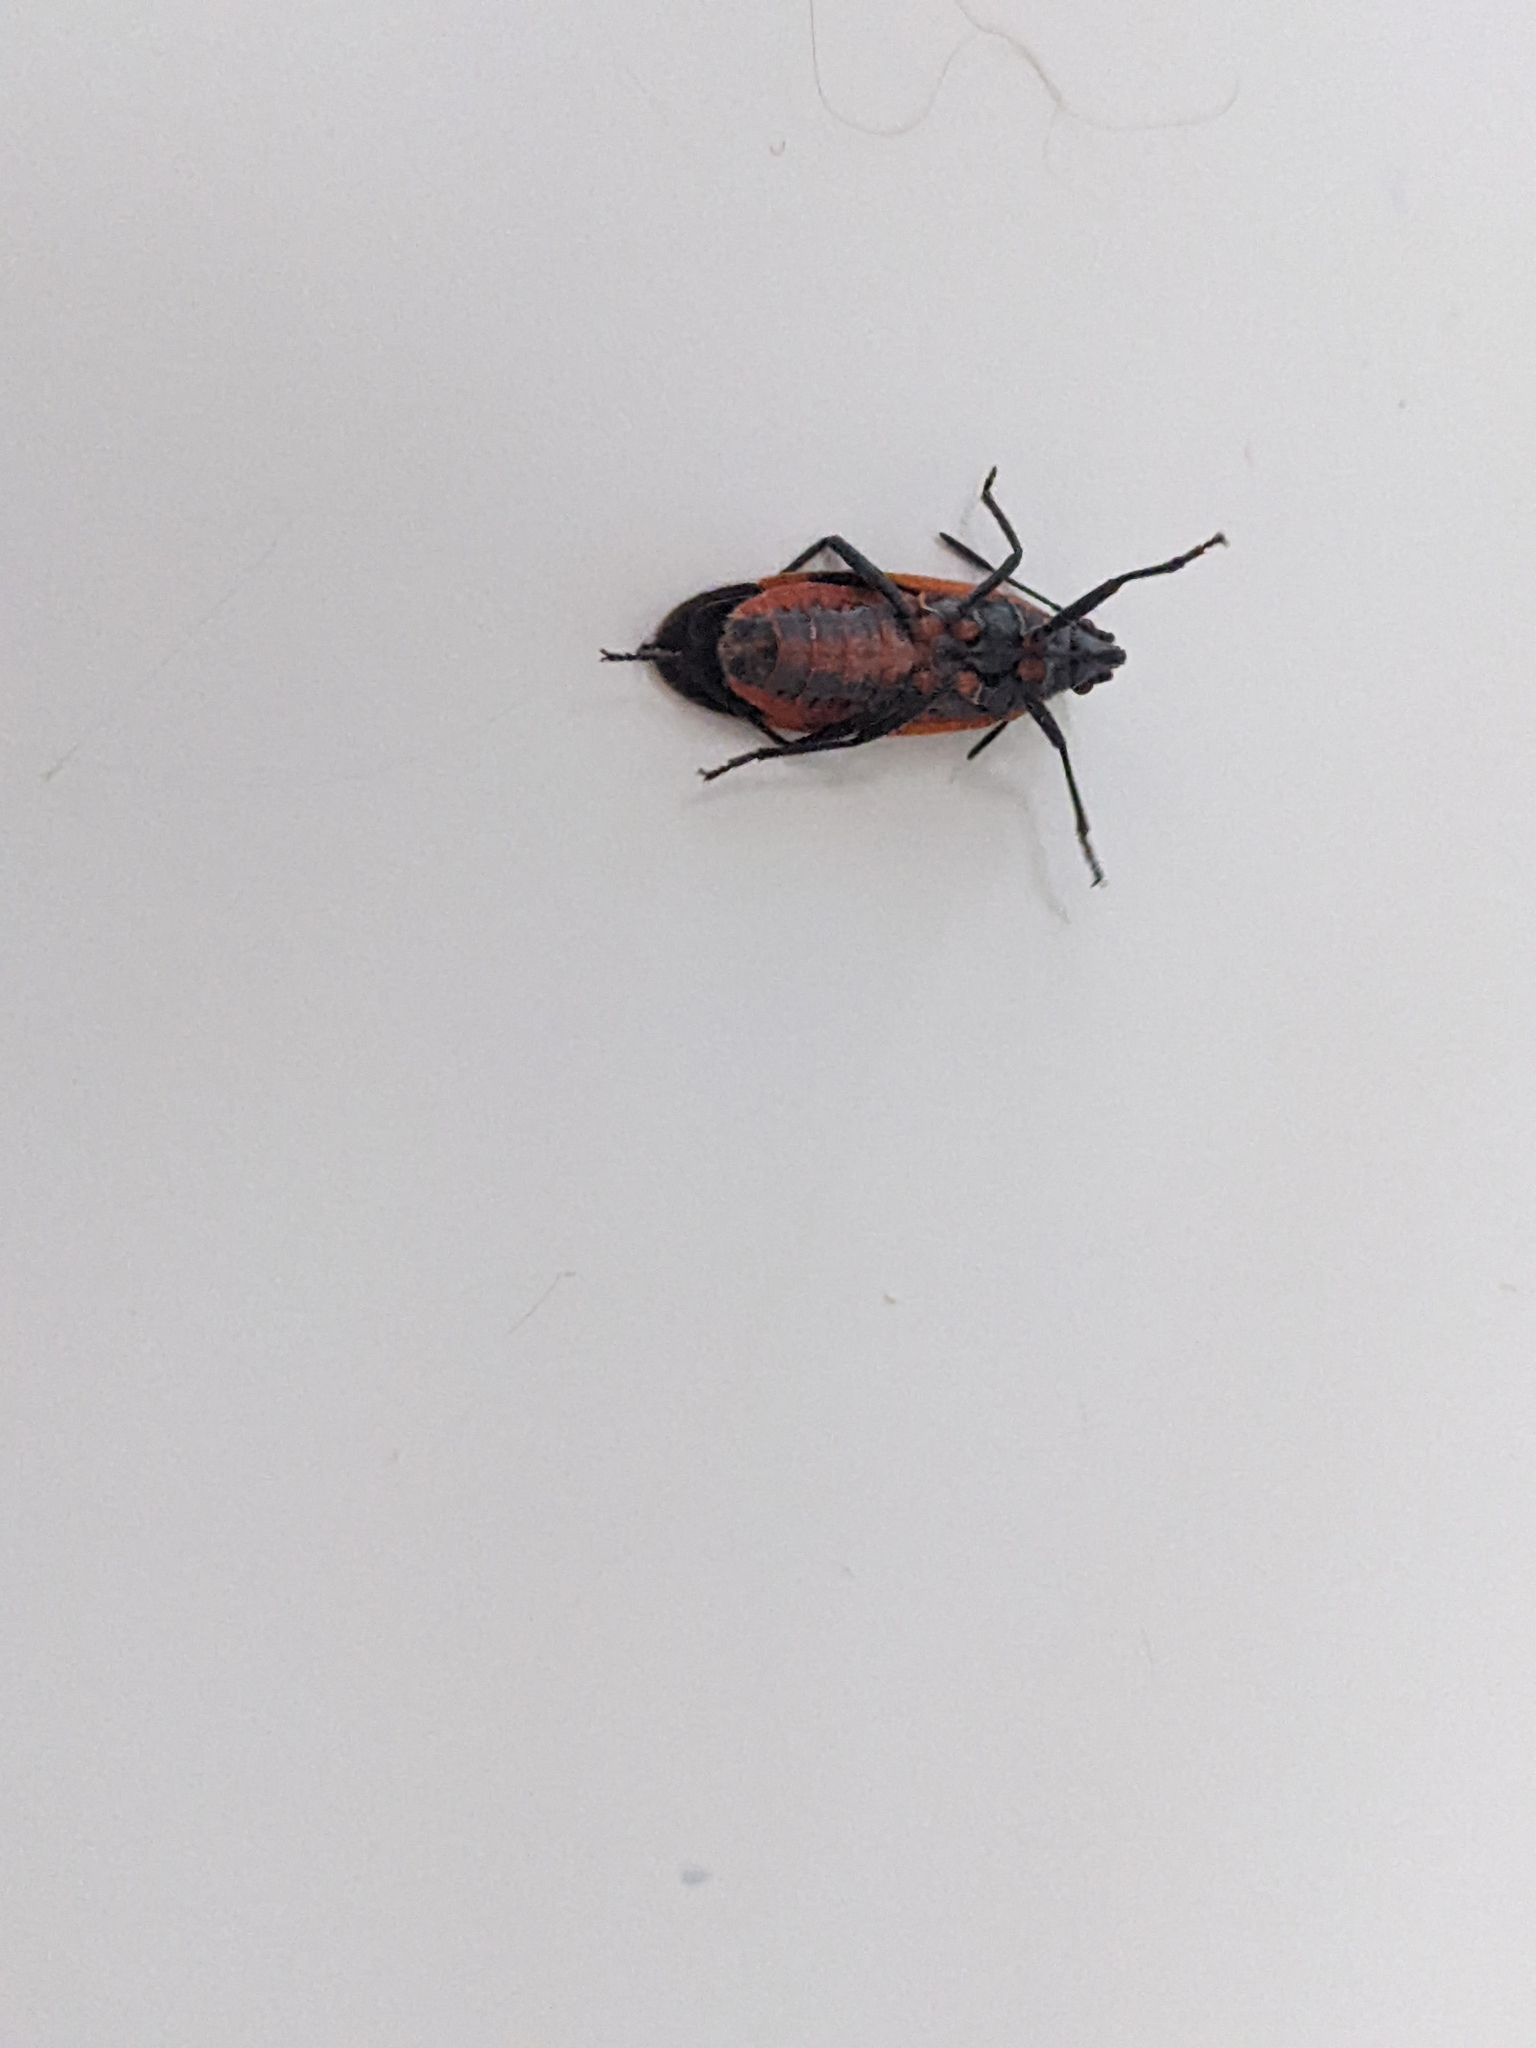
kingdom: Animalia
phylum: Arthropoda
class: Insecta
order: Hemiptera
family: Rhopalidae
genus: Boisea
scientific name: Boisea trivittata
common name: Boxelder bug
